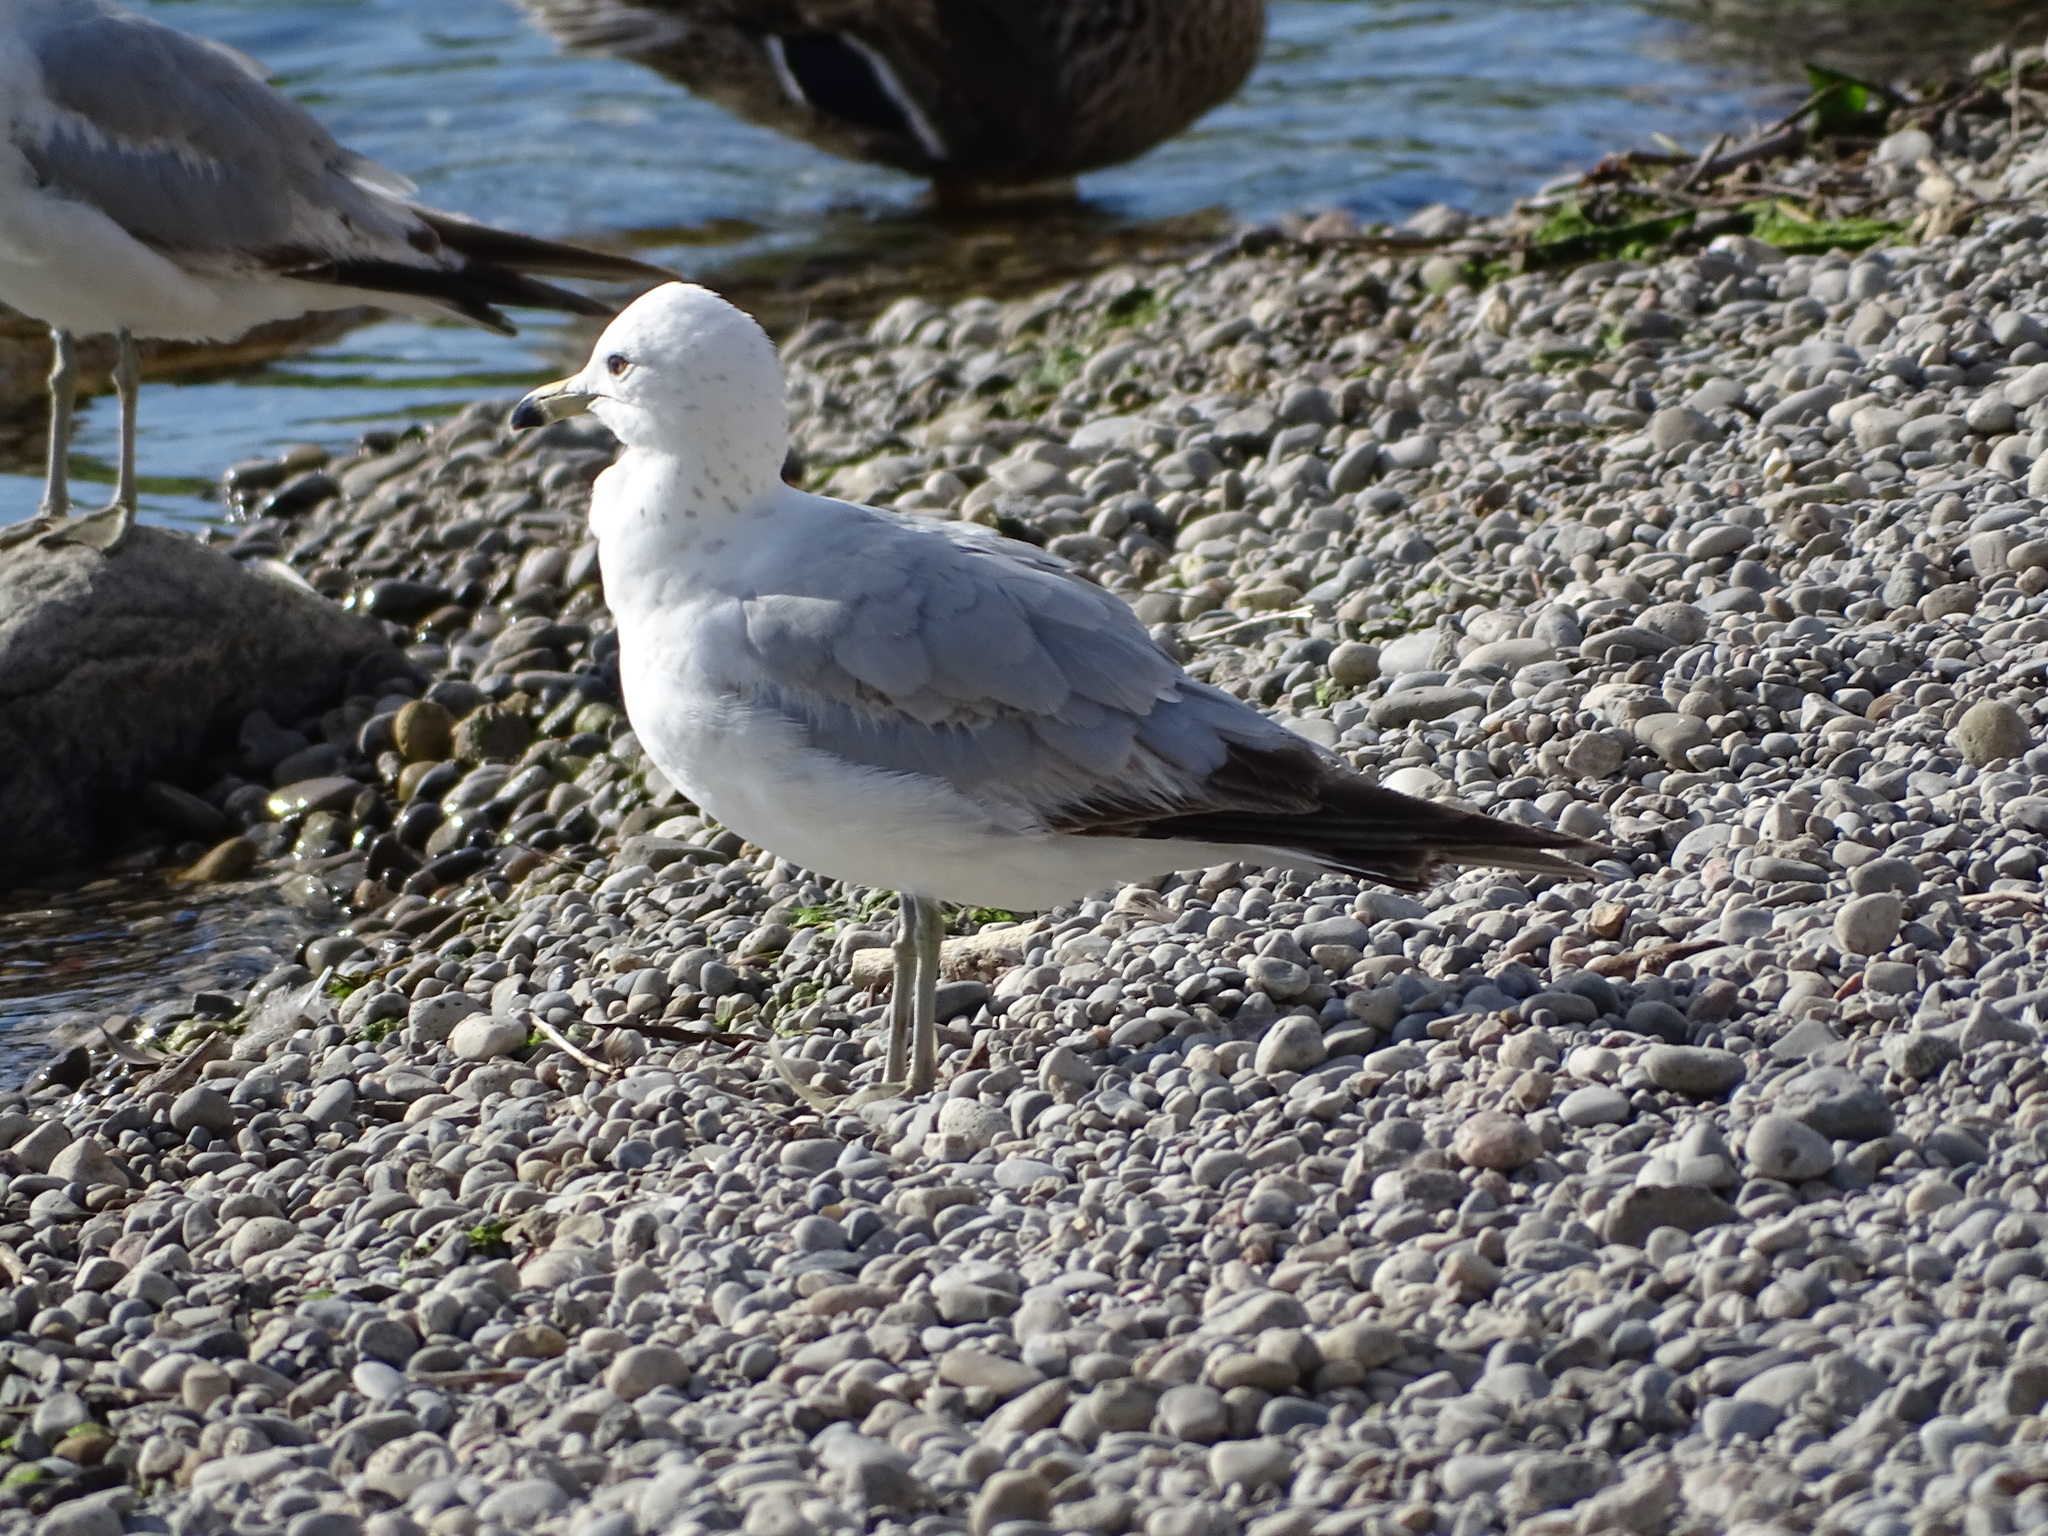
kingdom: Animalia
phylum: Chordata
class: Aves
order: Charadriiformes
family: Laridae
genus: Larus
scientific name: Larus delawarensis
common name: Ring-billed gull
